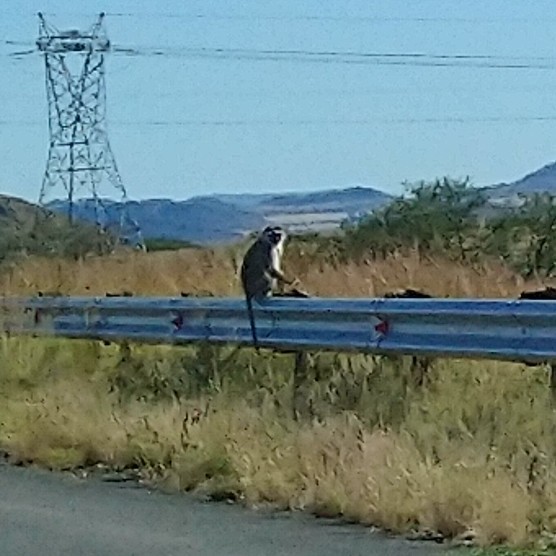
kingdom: Animalia
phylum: Chordata
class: Mammalia
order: Primates
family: Cercopithecidae
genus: Chlorocebus
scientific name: Chlorocebus pygerythrus
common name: Vervet monkey
